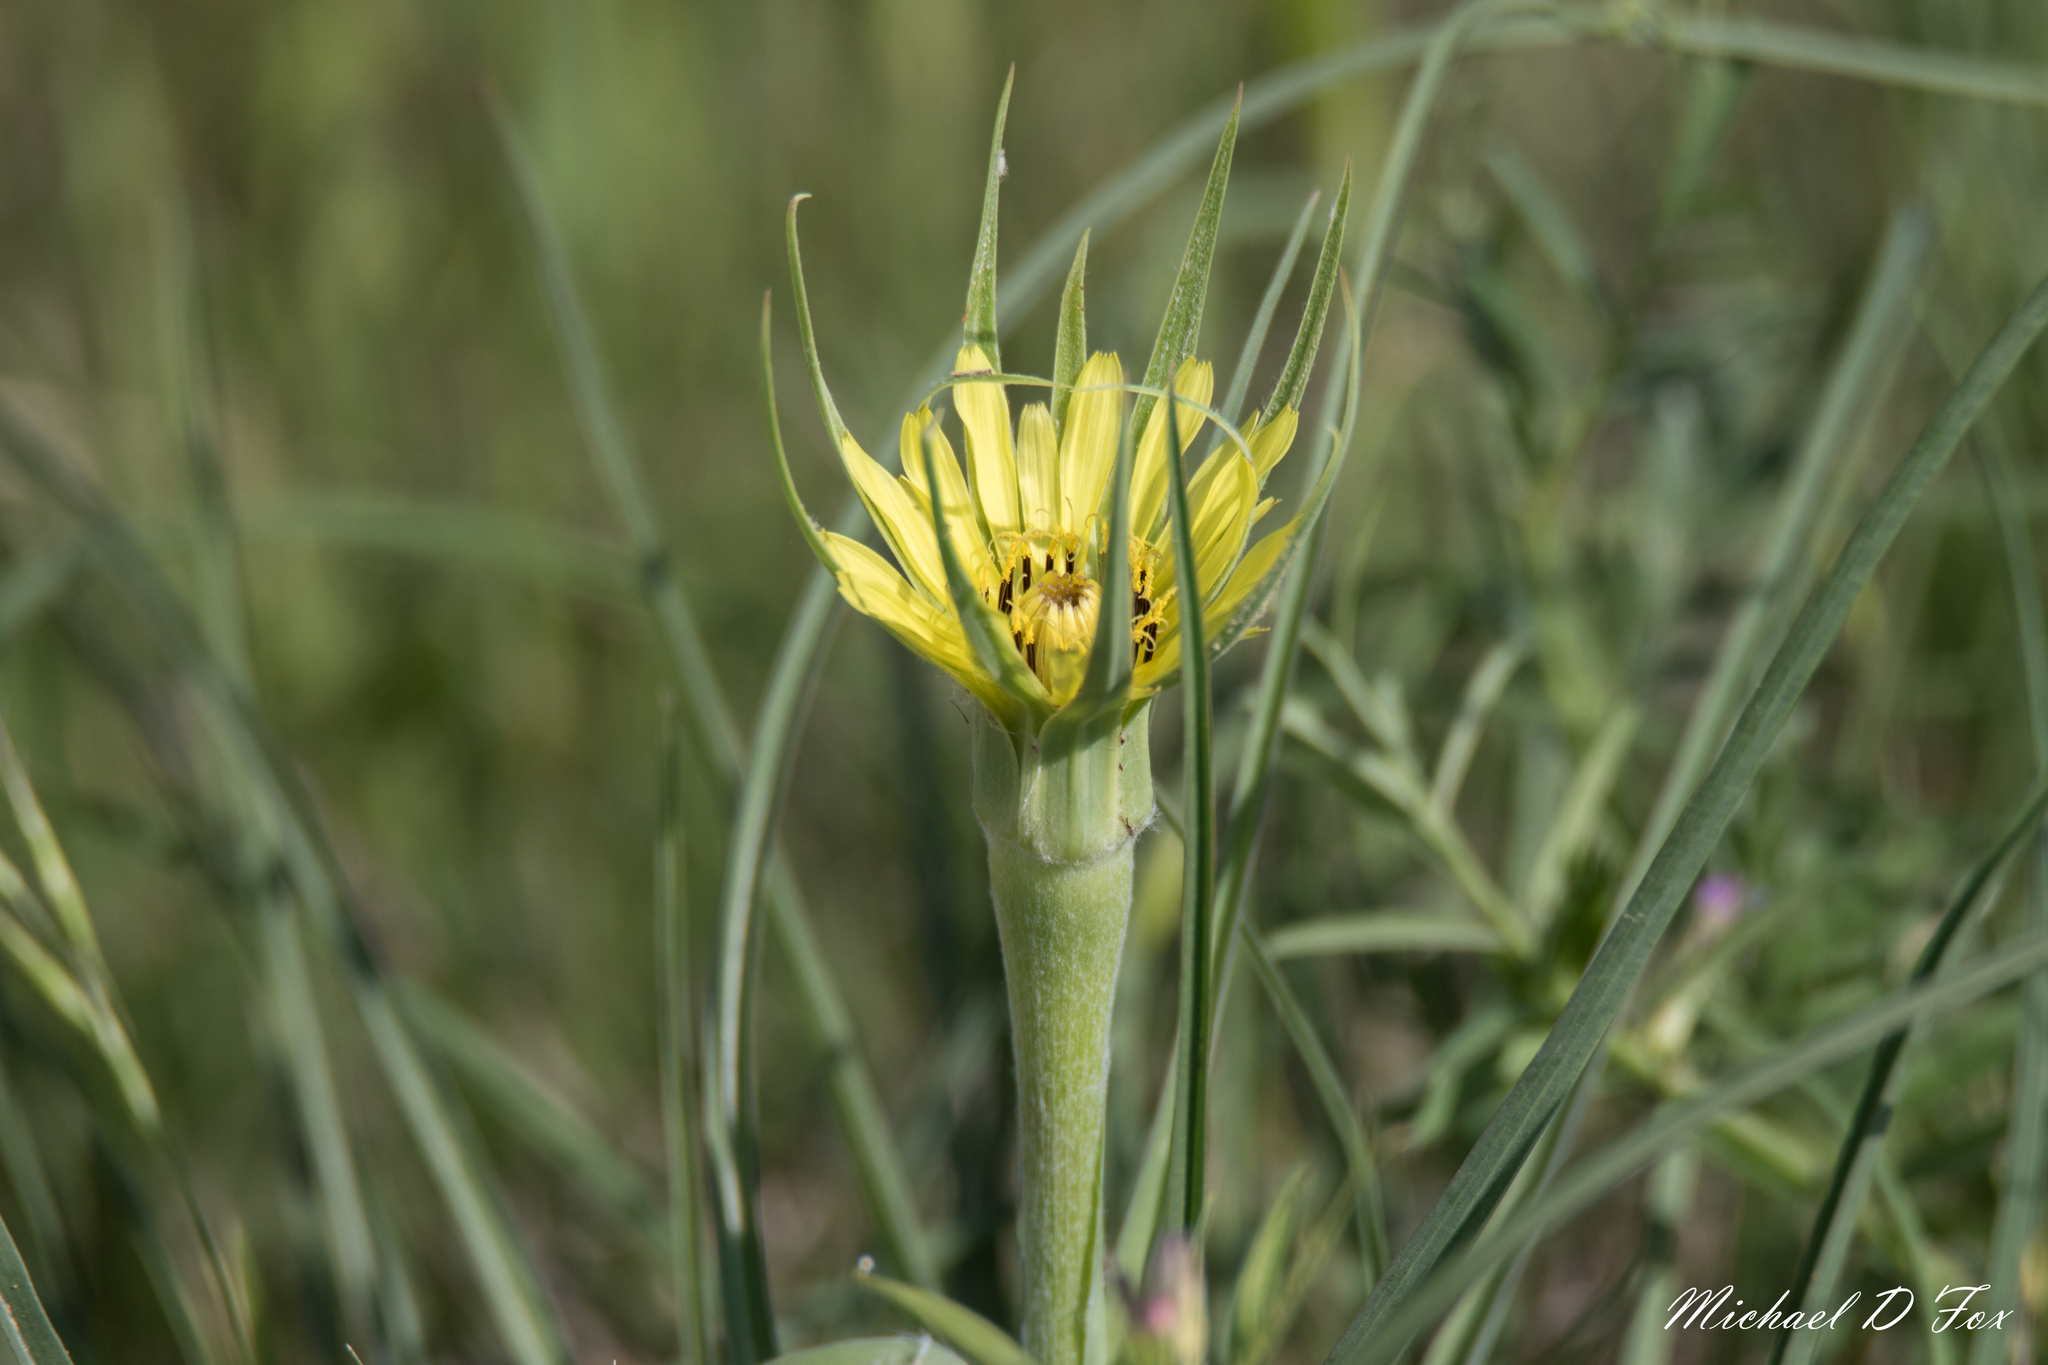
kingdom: Plantae
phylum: Tracheophyta
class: Magnoliopsida
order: Asterales
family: Asteraceae
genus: Tragopogon
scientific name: Tragopogon dubius
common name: Yellow salsify
